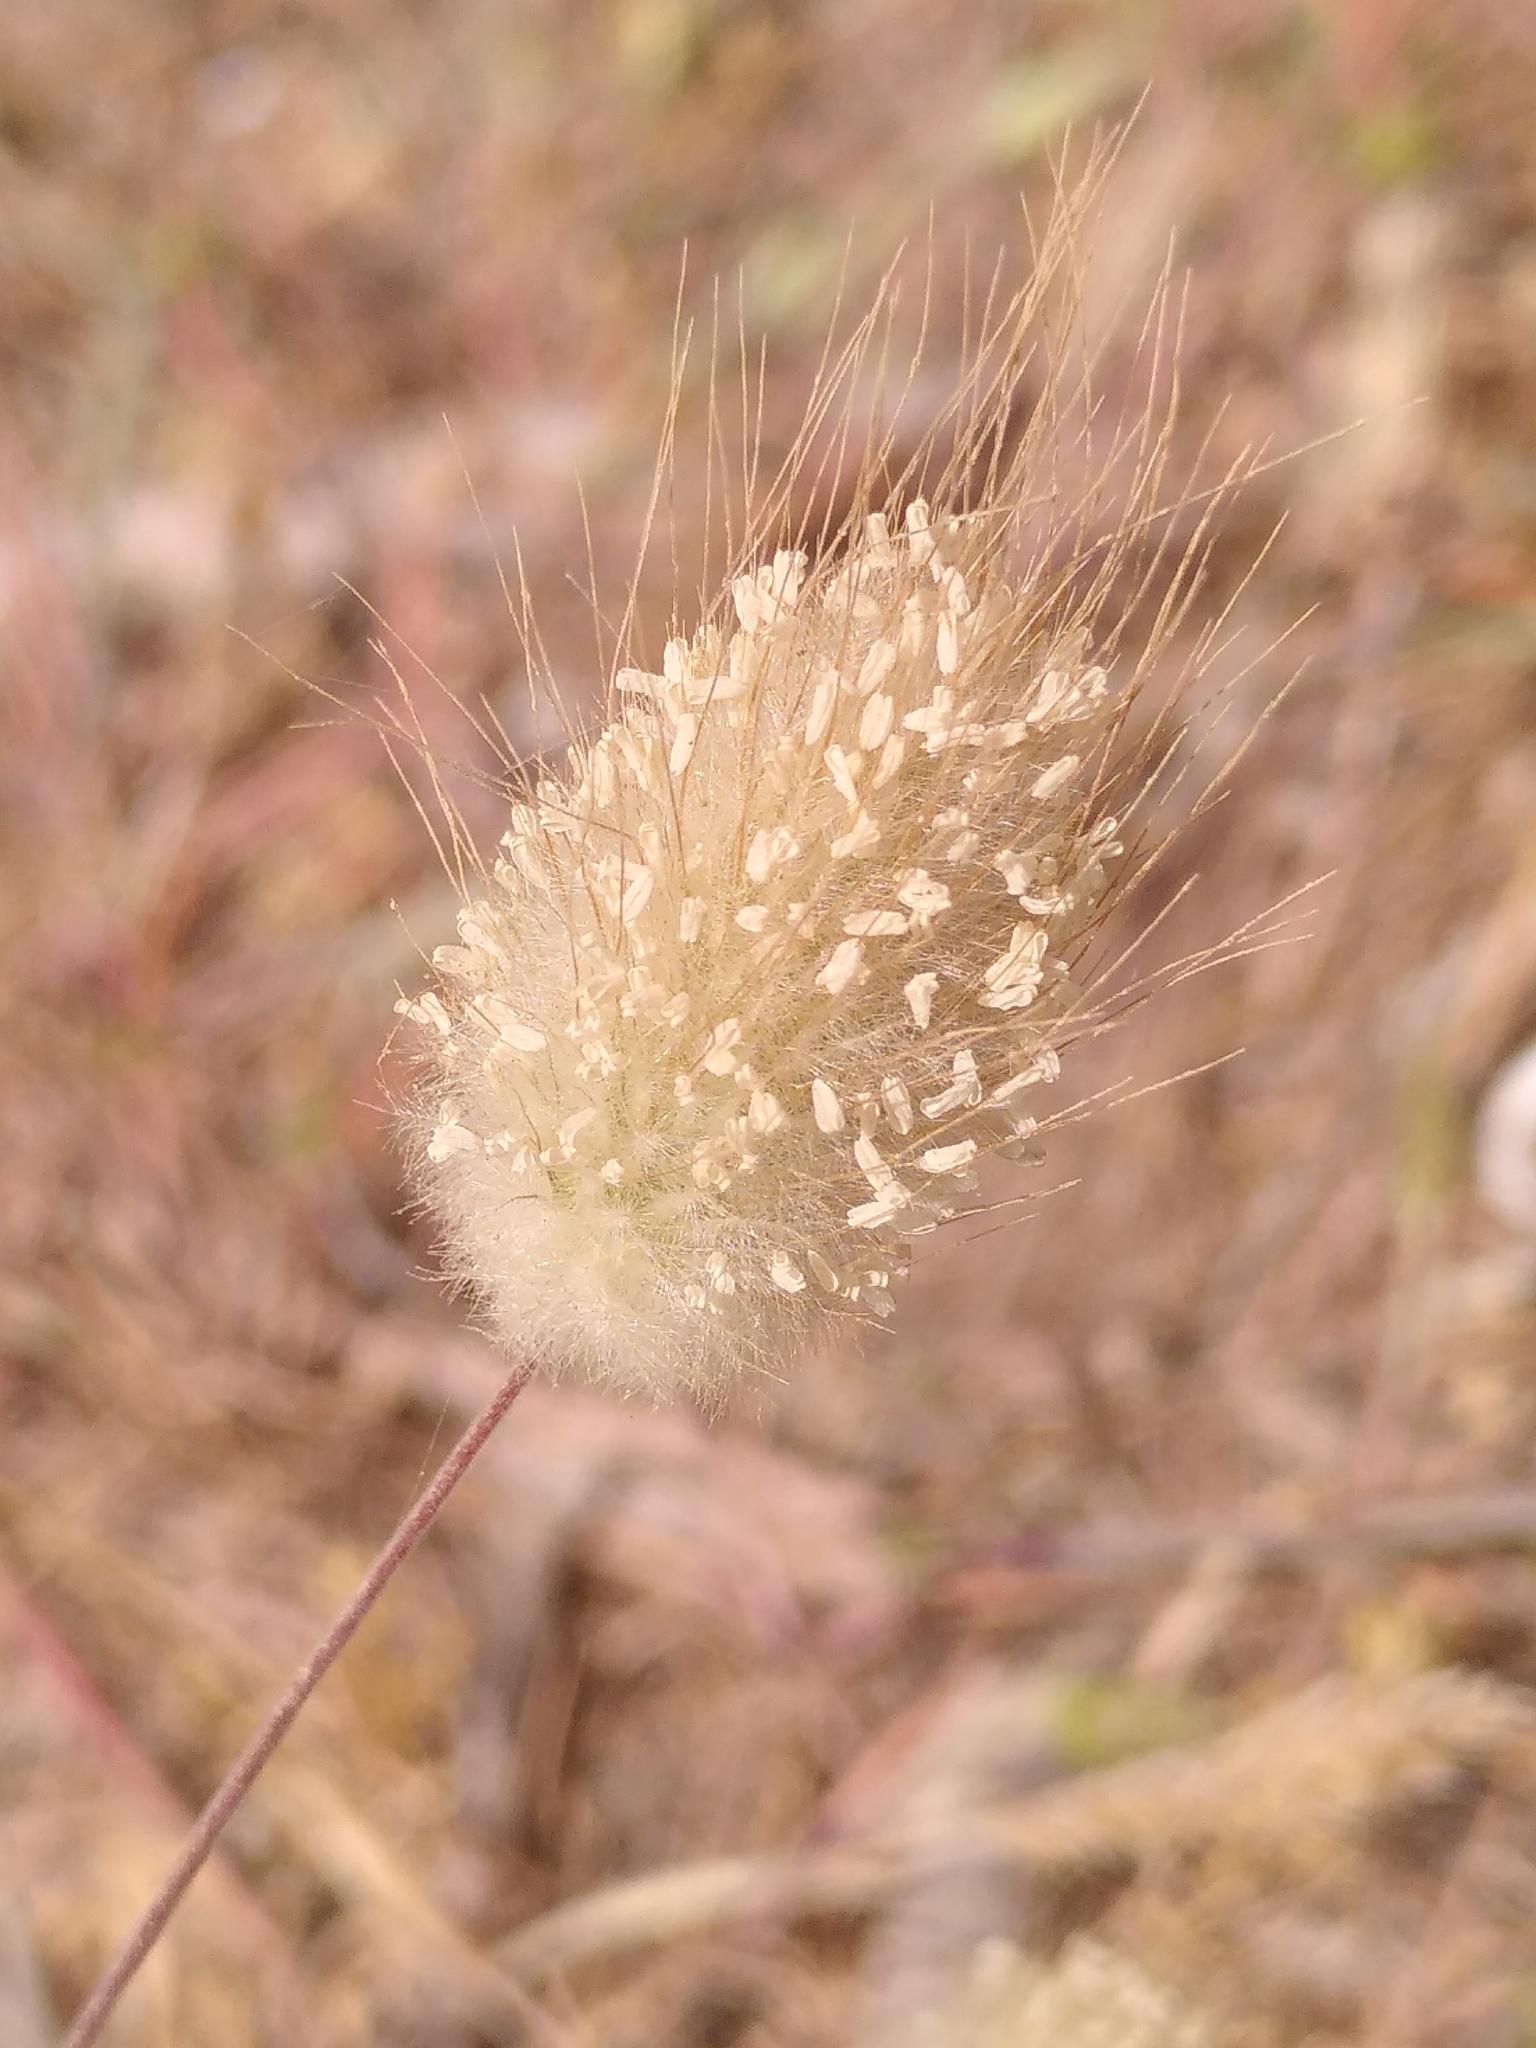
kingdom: Plantae
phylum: Tracheophyta
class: Liliopsida
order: Poales
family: Poaceae
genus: Lagurus
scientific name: Lagurus ovatus
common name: Hare's-tail
